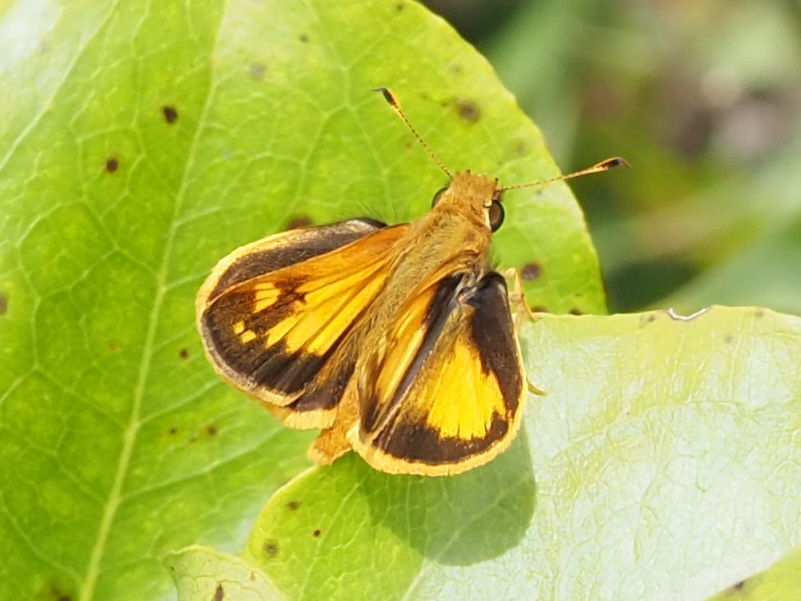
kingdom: Animalia
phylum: Arthropoda
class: Insecta
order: Lepidoptera
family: Hesperiidae
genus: Lon
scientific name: Lon zabulon
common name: Zabulon skipper
